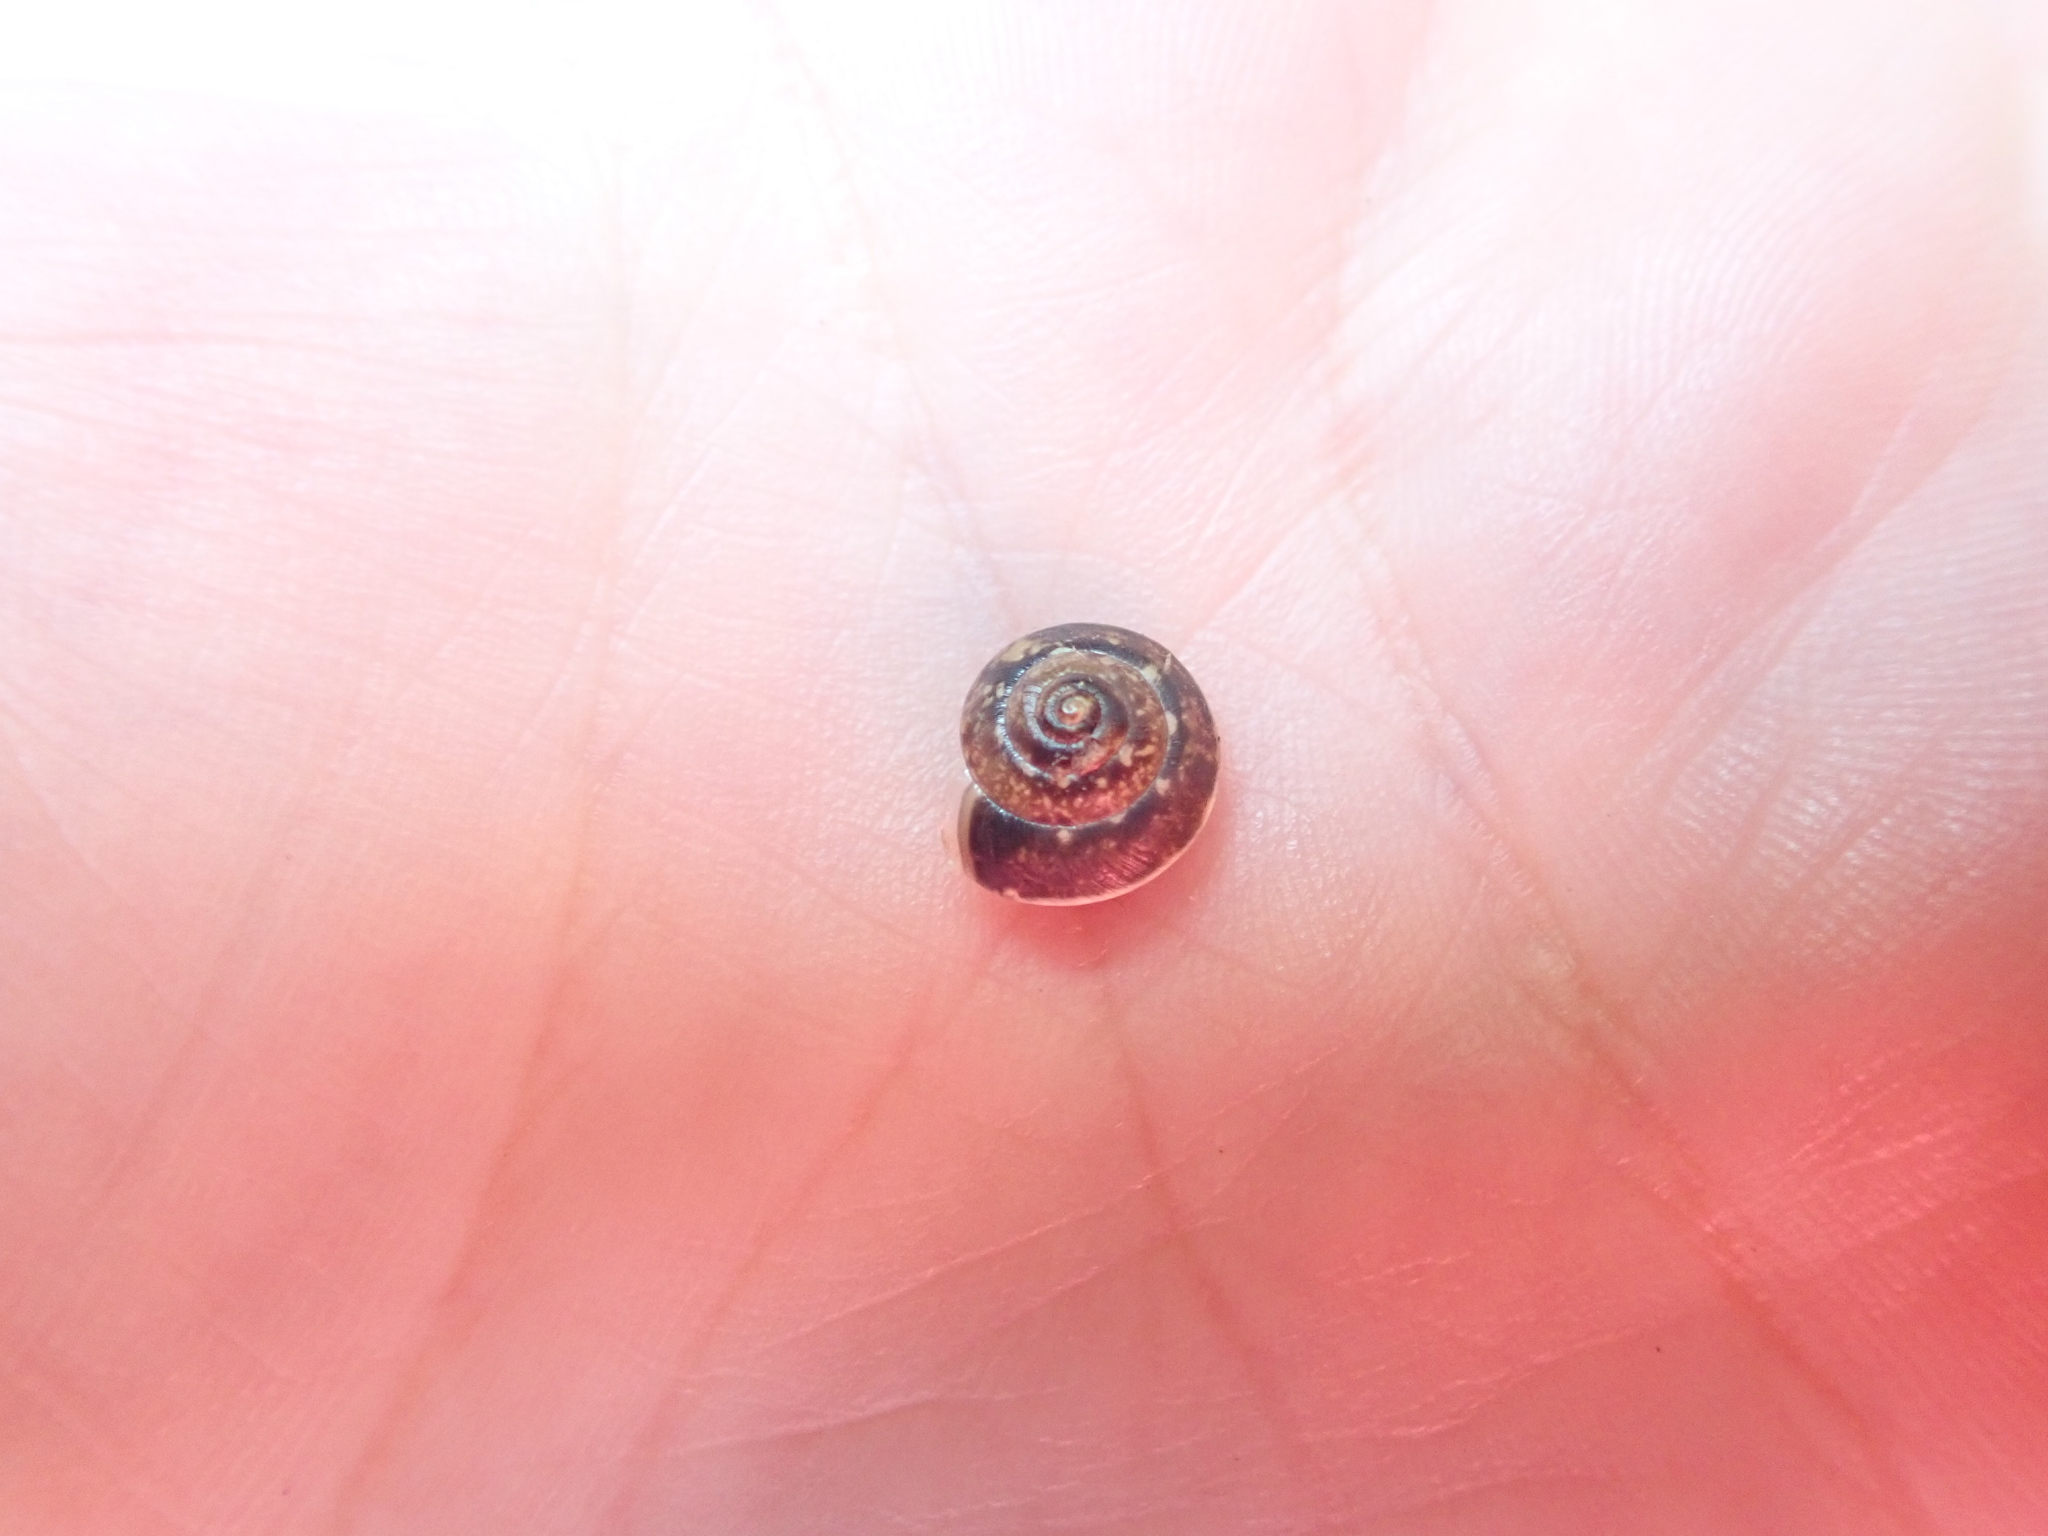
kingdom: Animalia
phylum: Mollusca
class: Gastropoda
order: Stylommatophora
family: Hygromiidae
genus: Hygromia
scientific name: Hygromia cinctella
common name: Girdled snail
